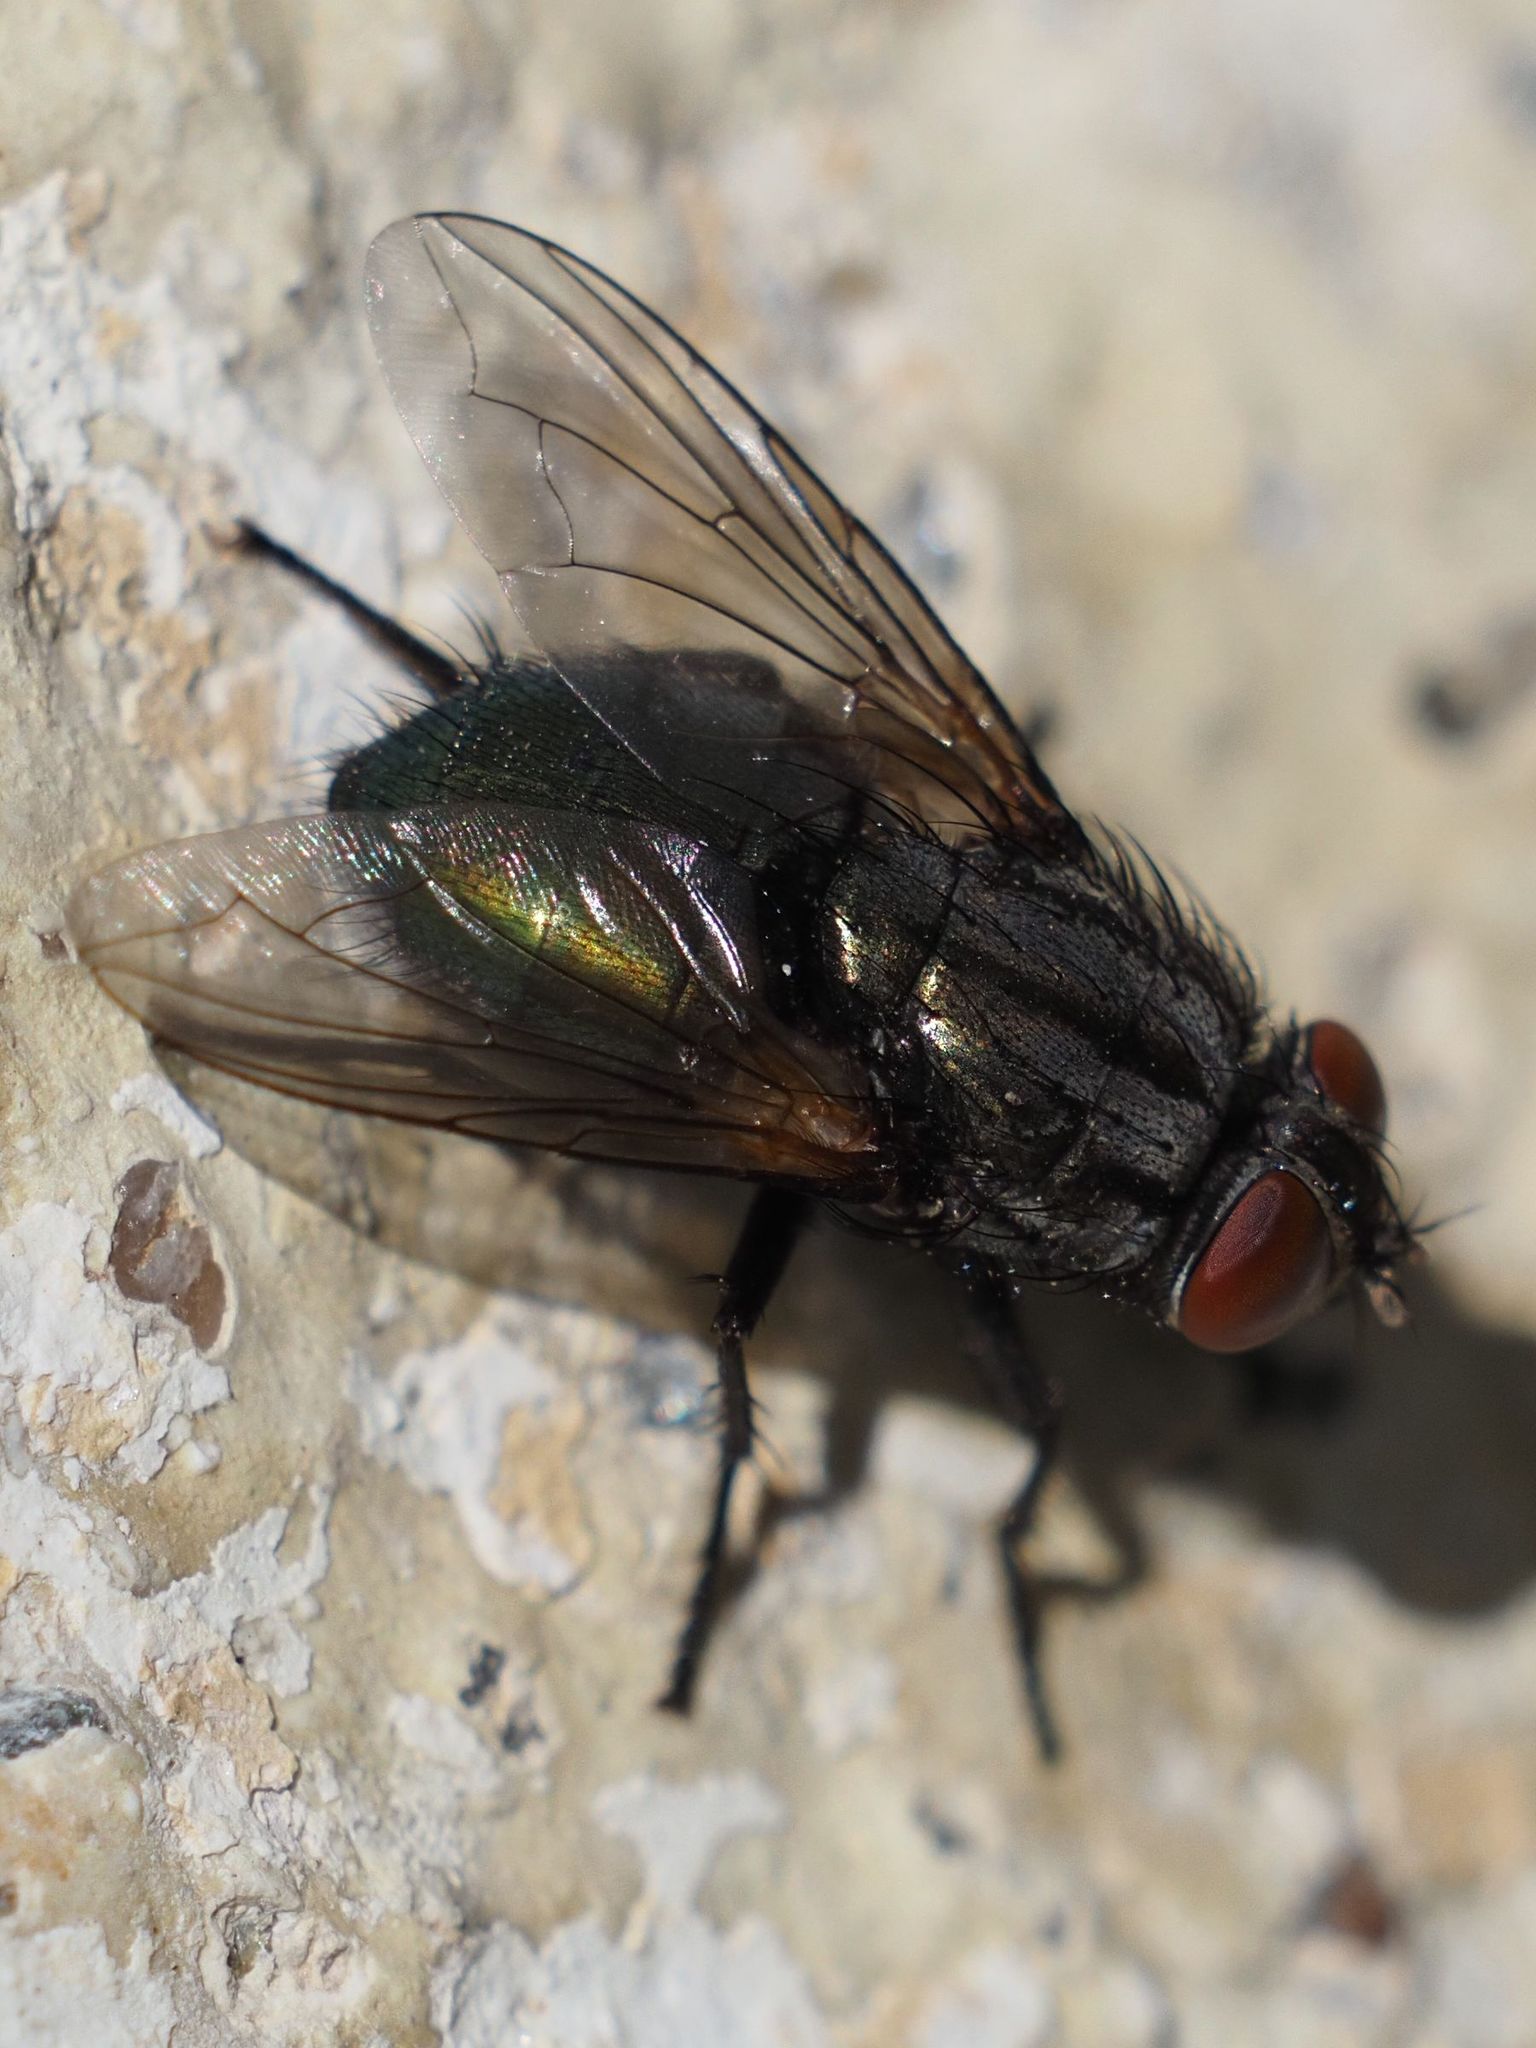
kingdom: Animalia
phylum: Arthropoda
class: Insecta
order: Diptera
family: Calliphoridae
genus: Protocalliphora
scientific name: Protocalliphora azurea
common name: Bird blowfly
